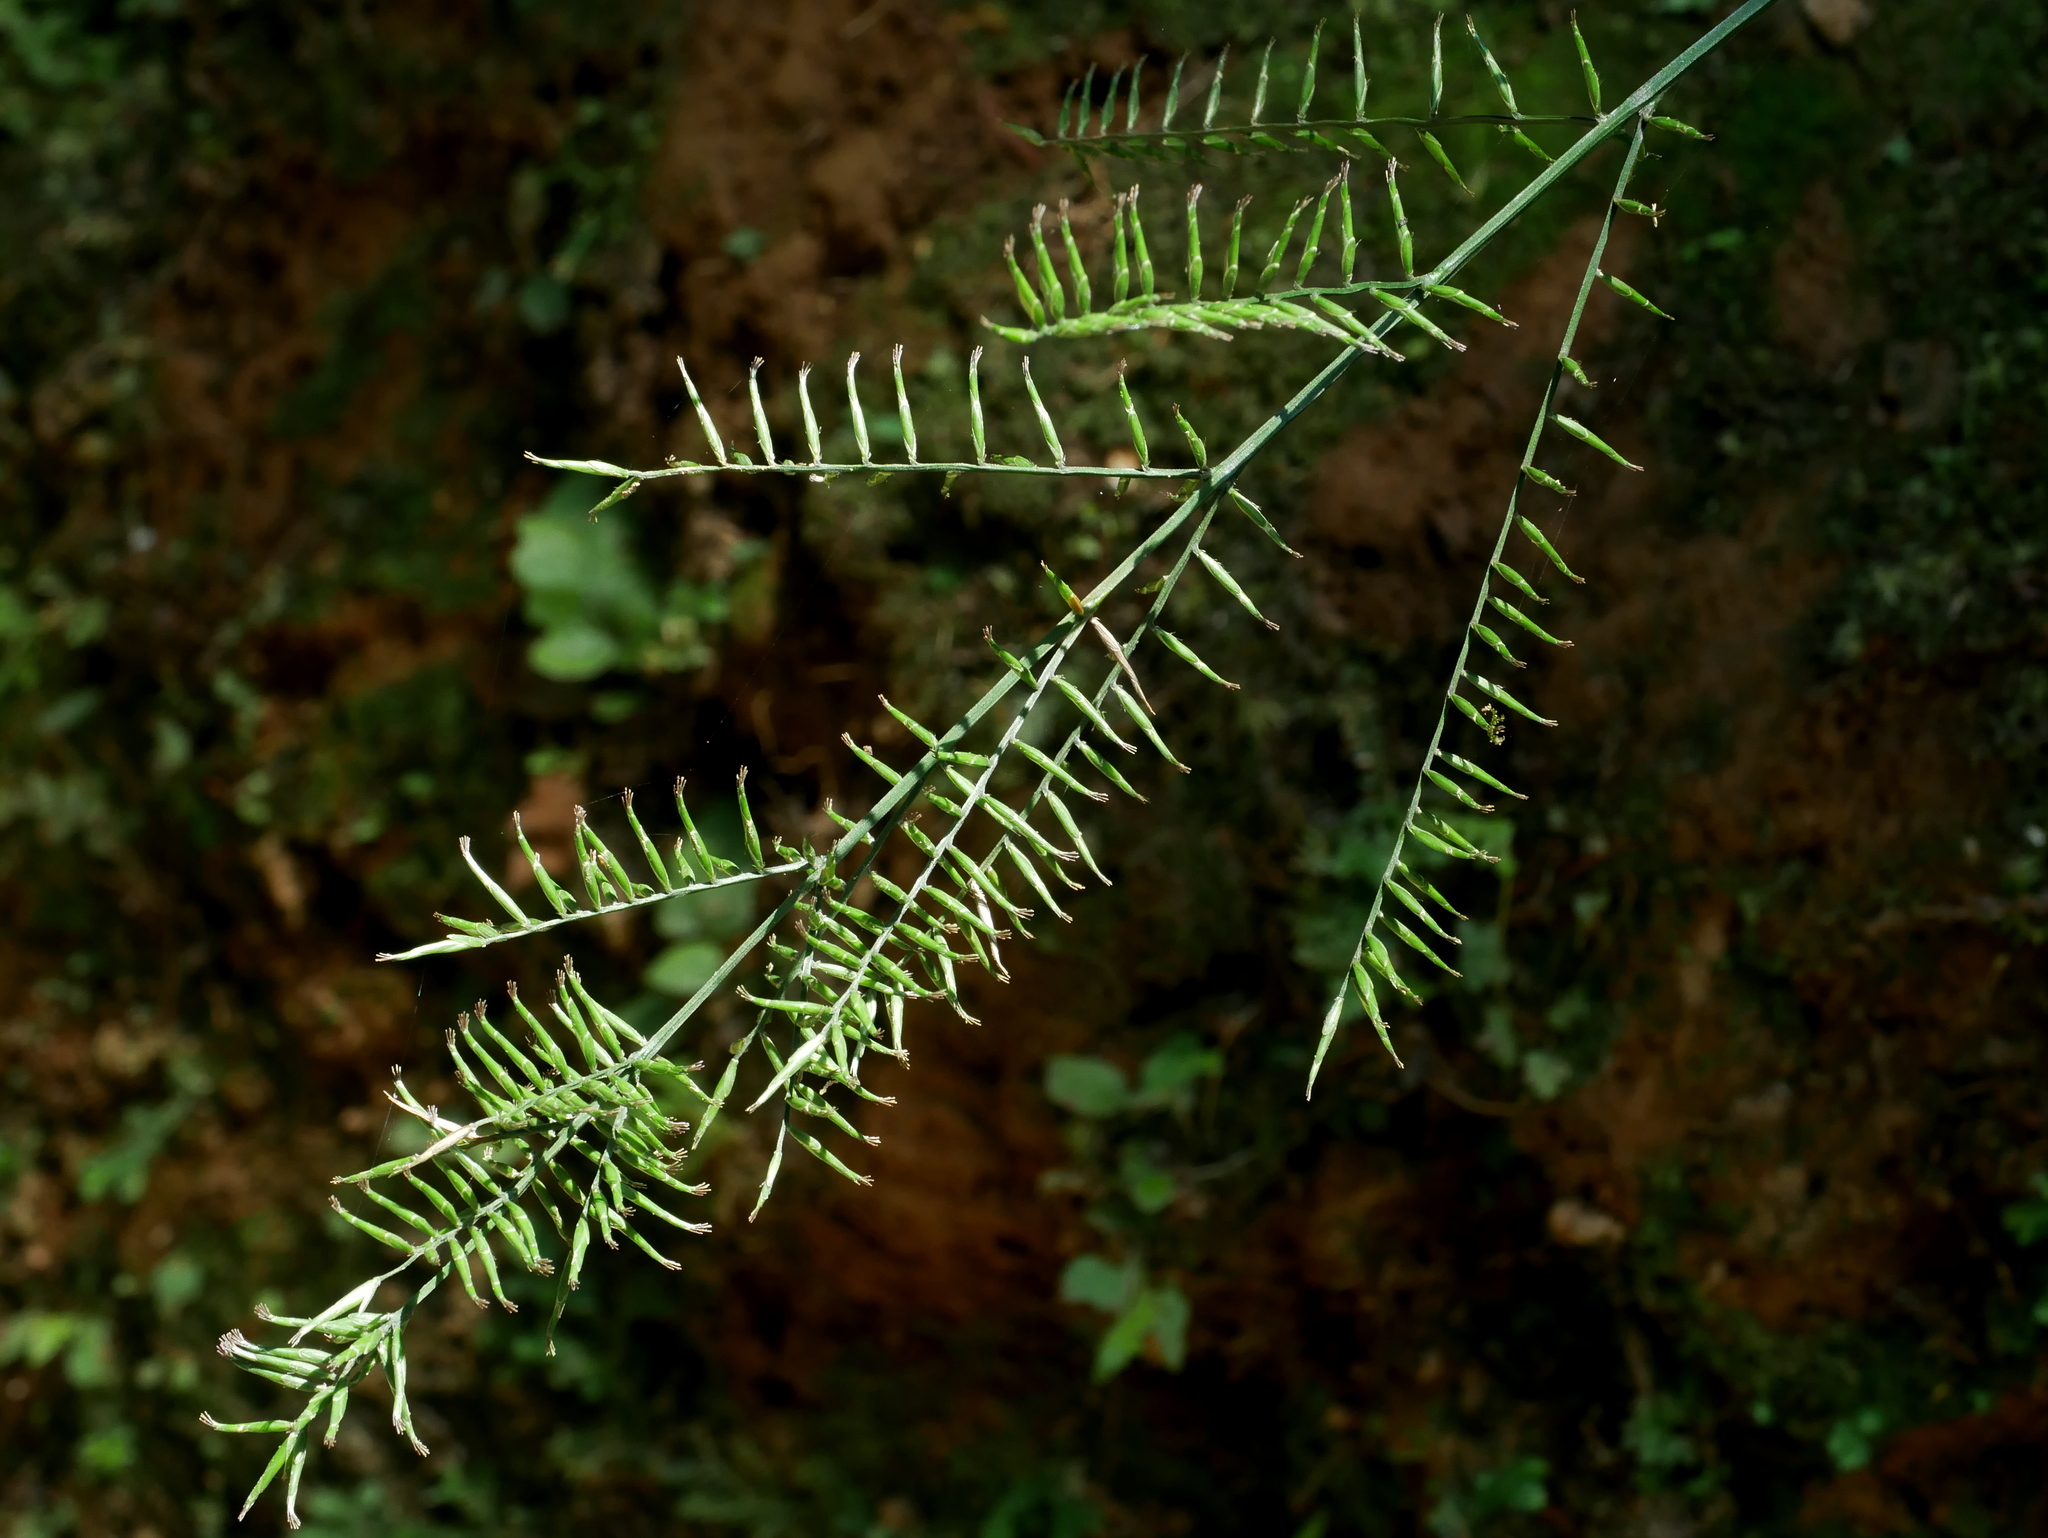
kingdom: Plantae
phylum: Tracheophyta
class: Liliopsida
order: Poales
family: Poaceae
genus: Lophatherum
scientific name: Lophatherum gracile
